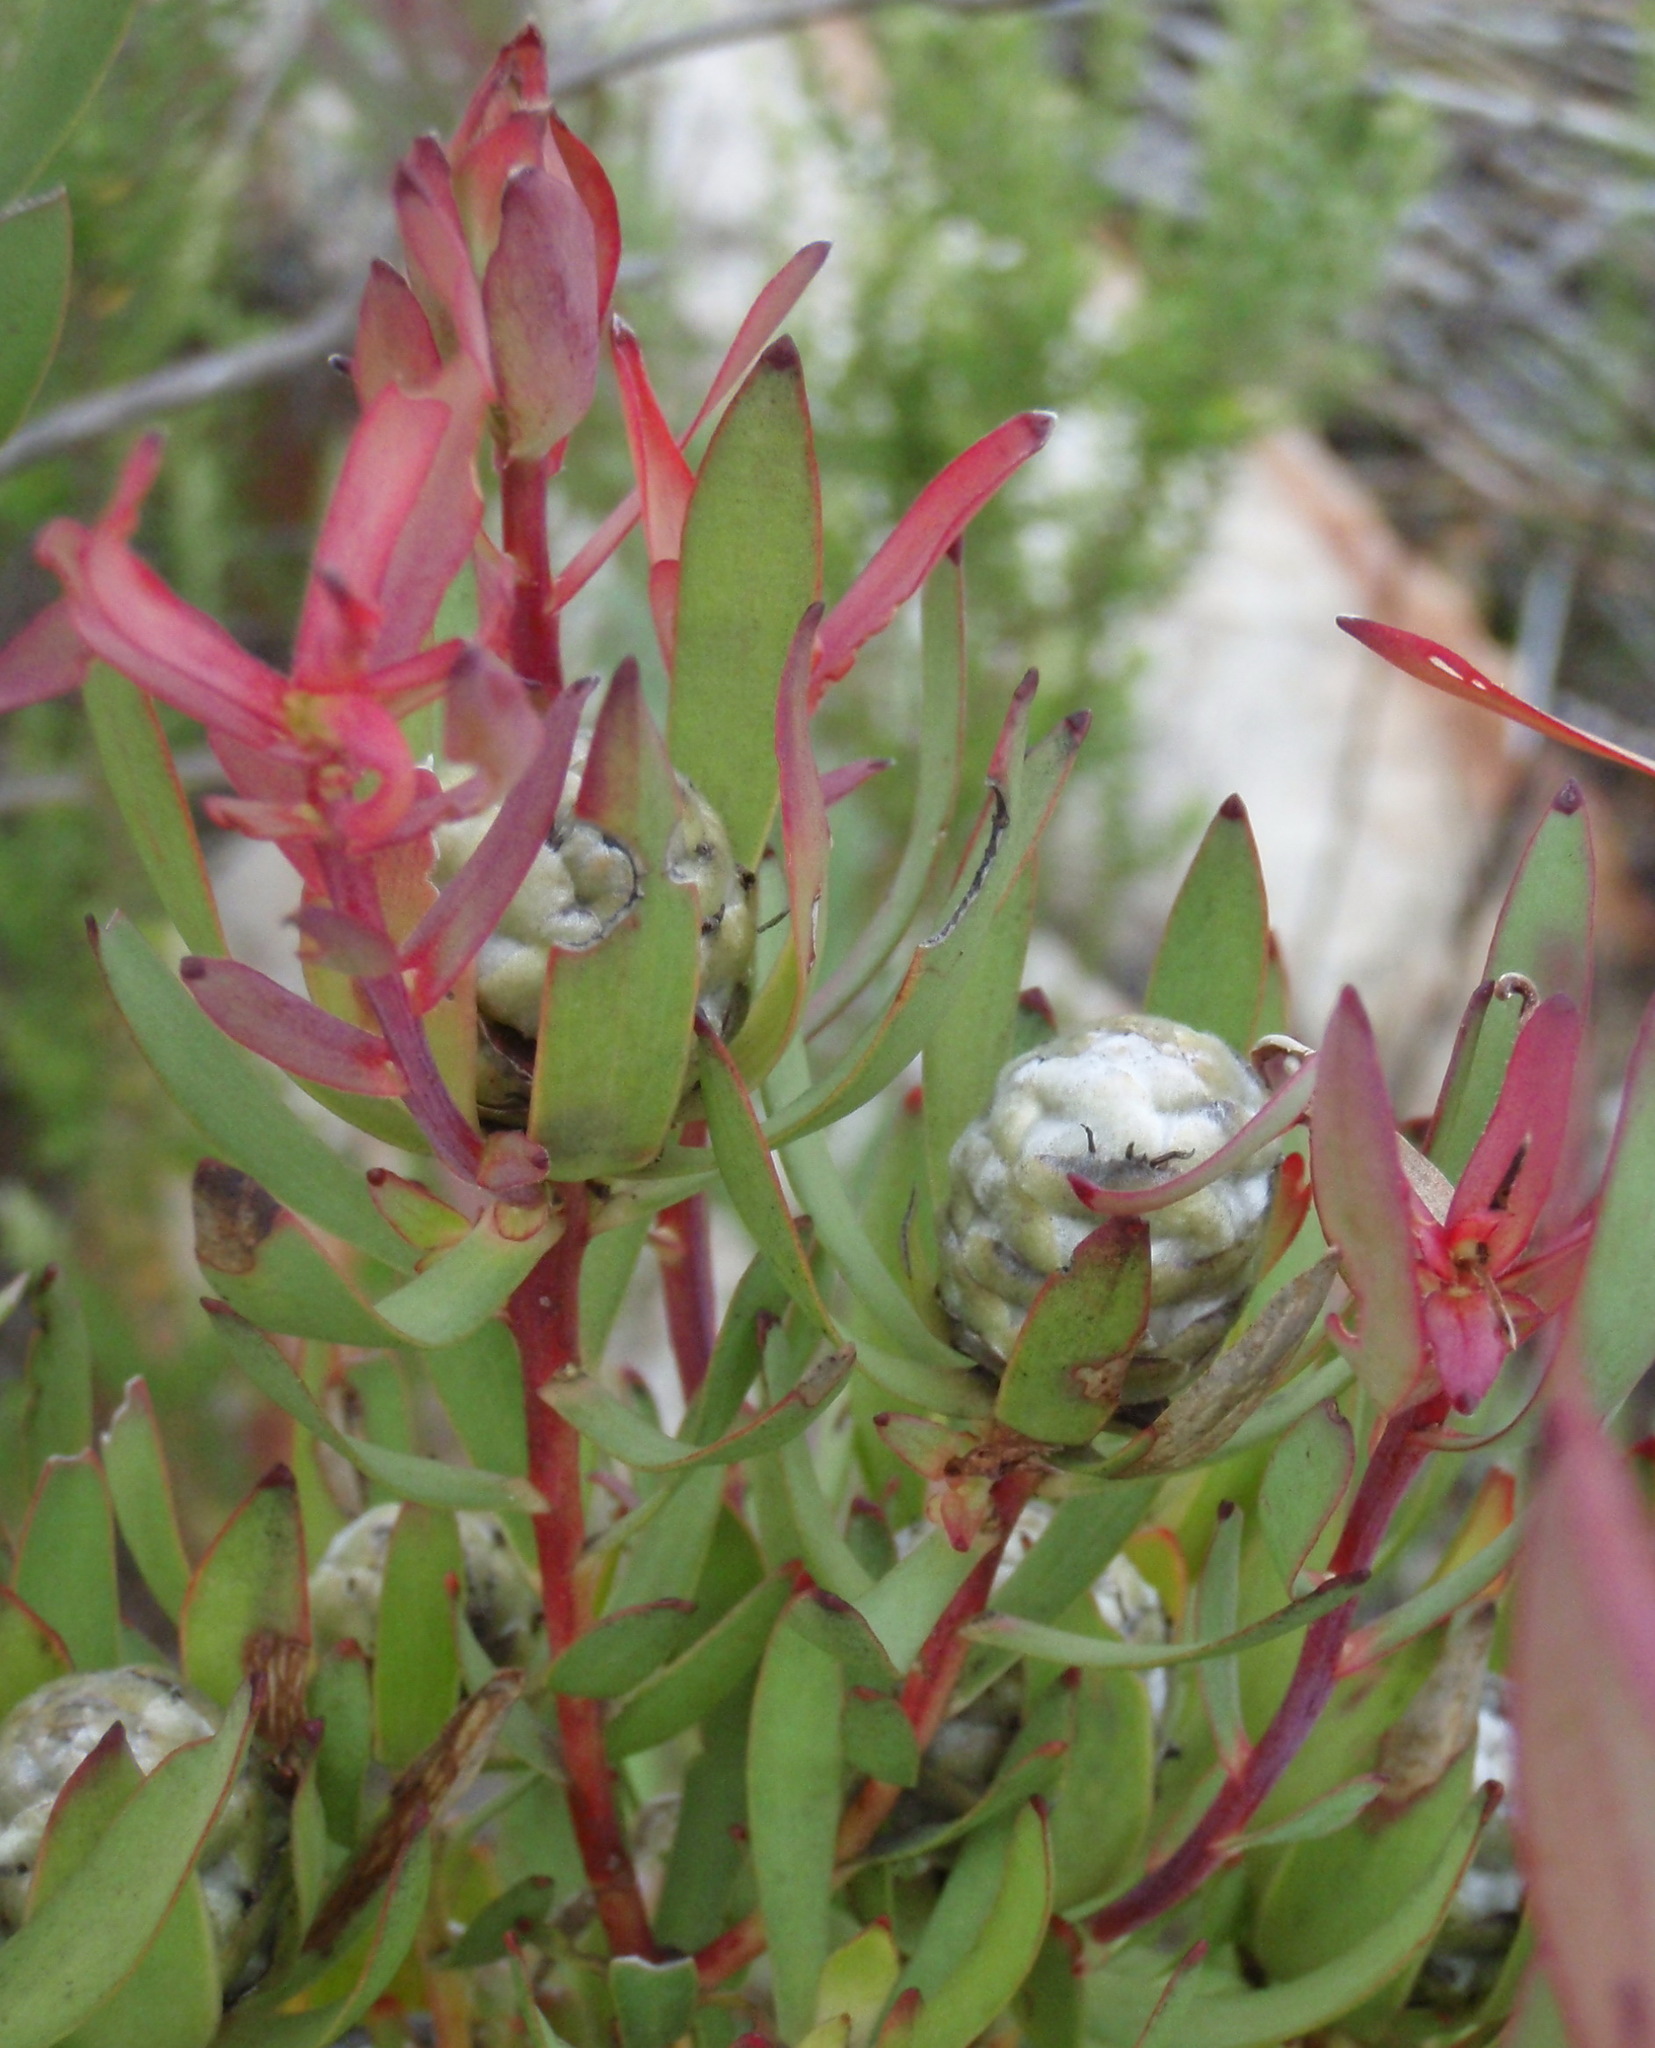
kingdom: Plantae
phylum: Tracheophyta
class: Magnoliopsida
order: Proteales
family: Proteaceae
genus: Leucadendron
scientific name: Leucadendron salignum
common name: Common sunshine conebush
